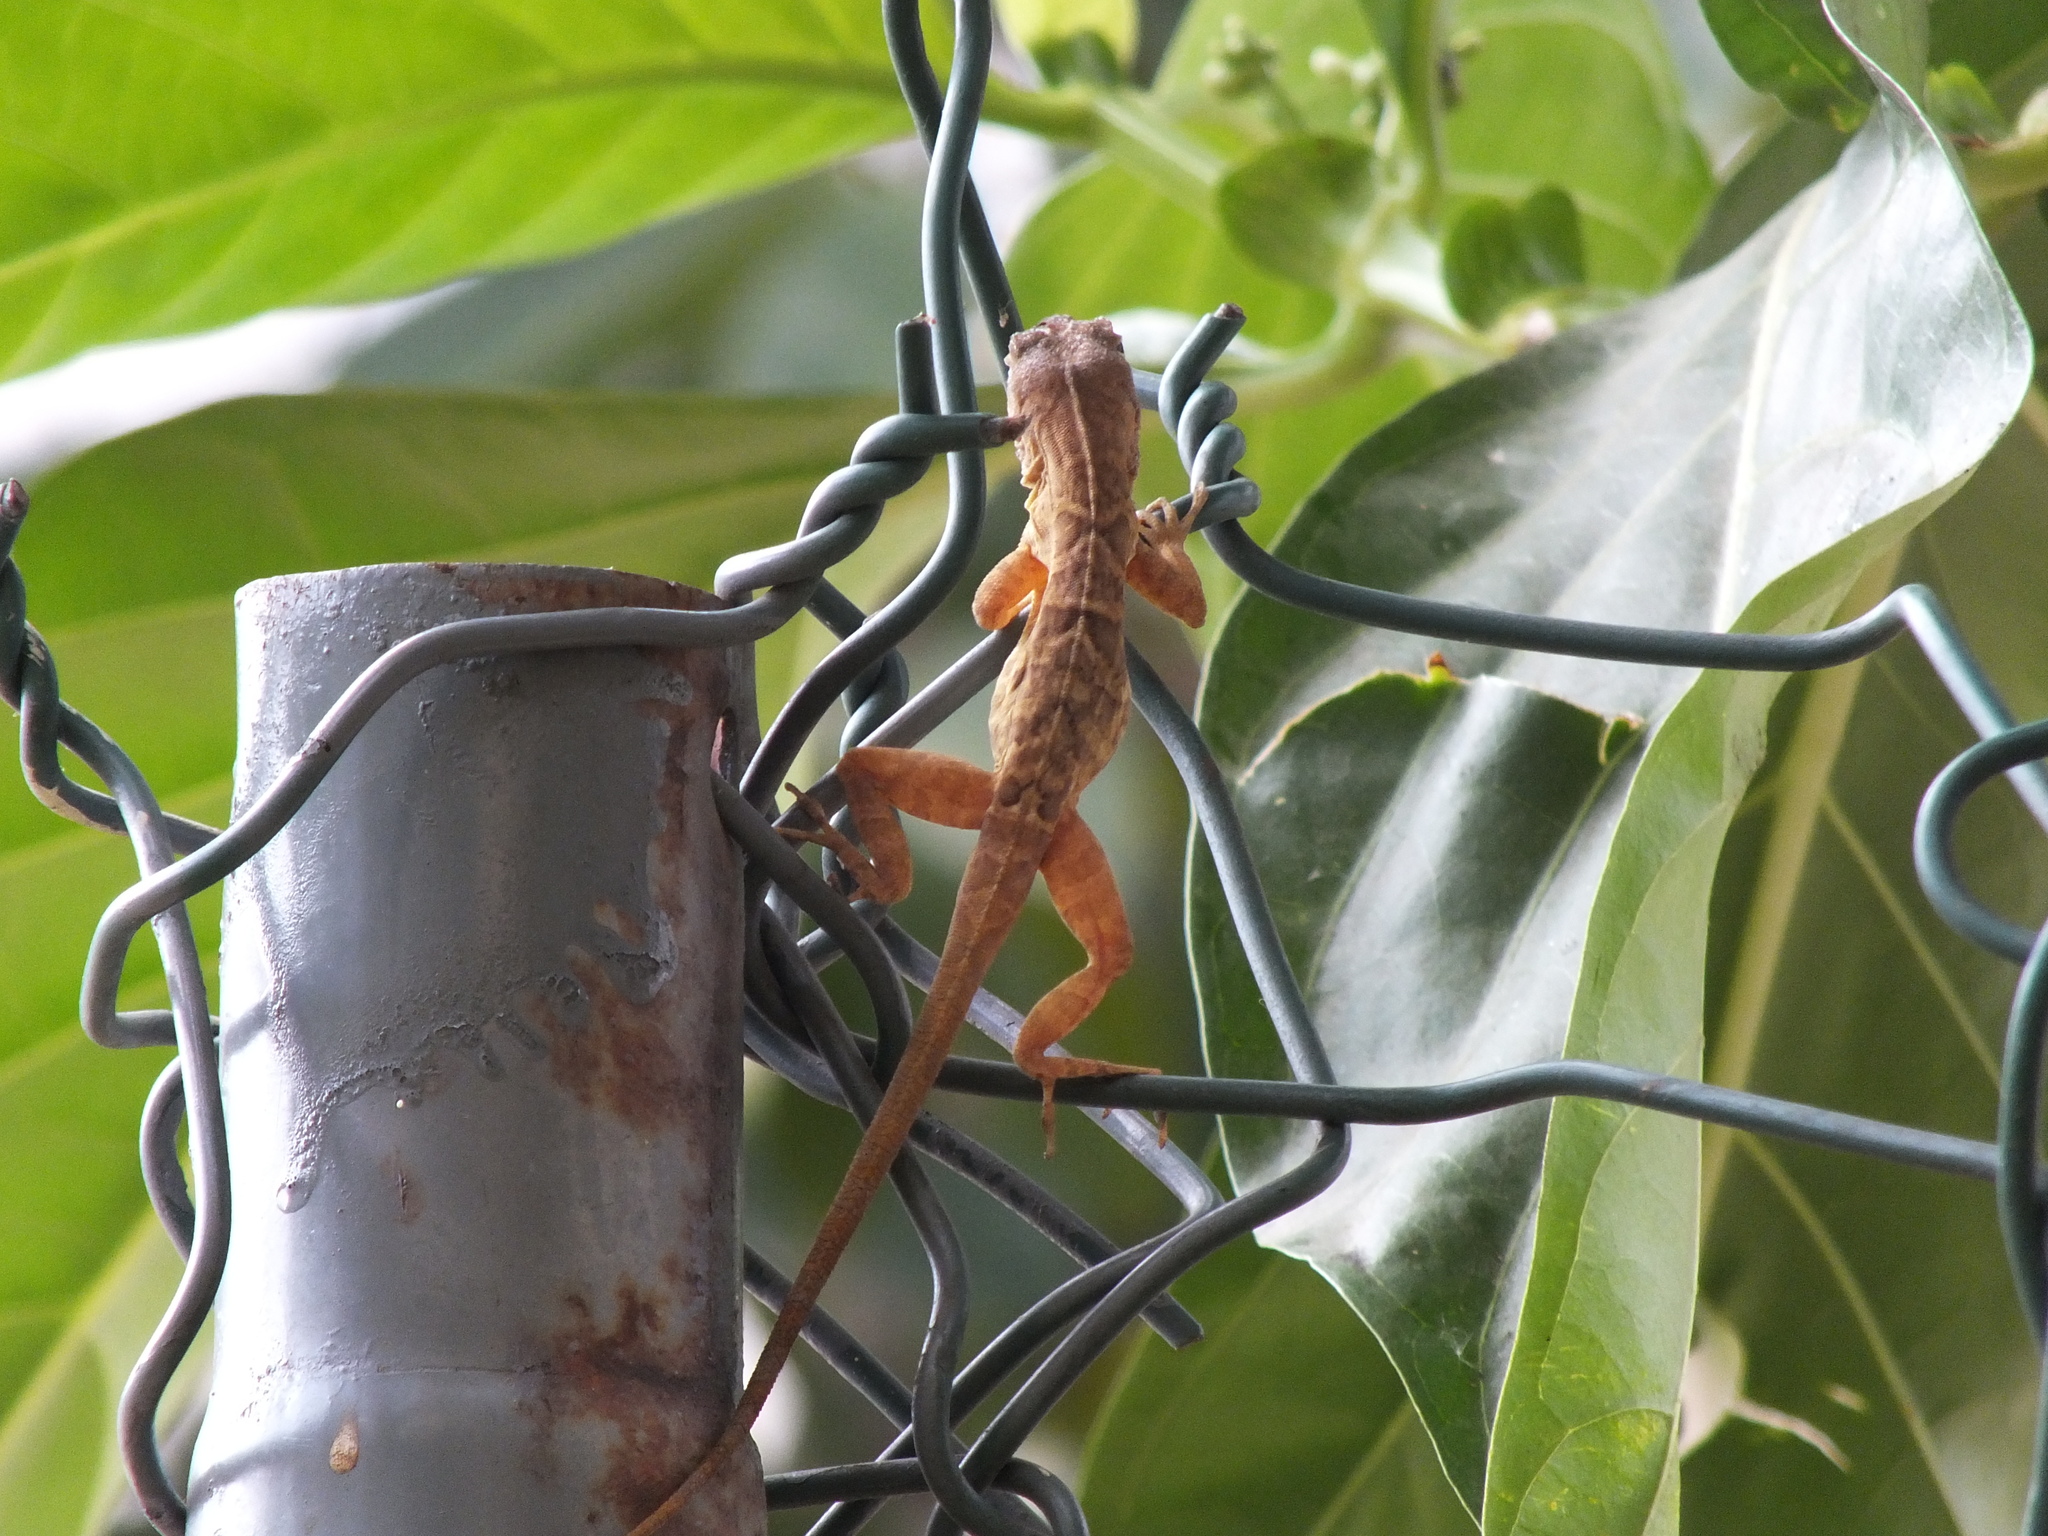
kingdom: Animalia
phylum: Chordata
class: Squamata
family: Dactyloidae
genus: Anolis
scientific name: Anolis lineatopus
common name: Stripefoot anole
